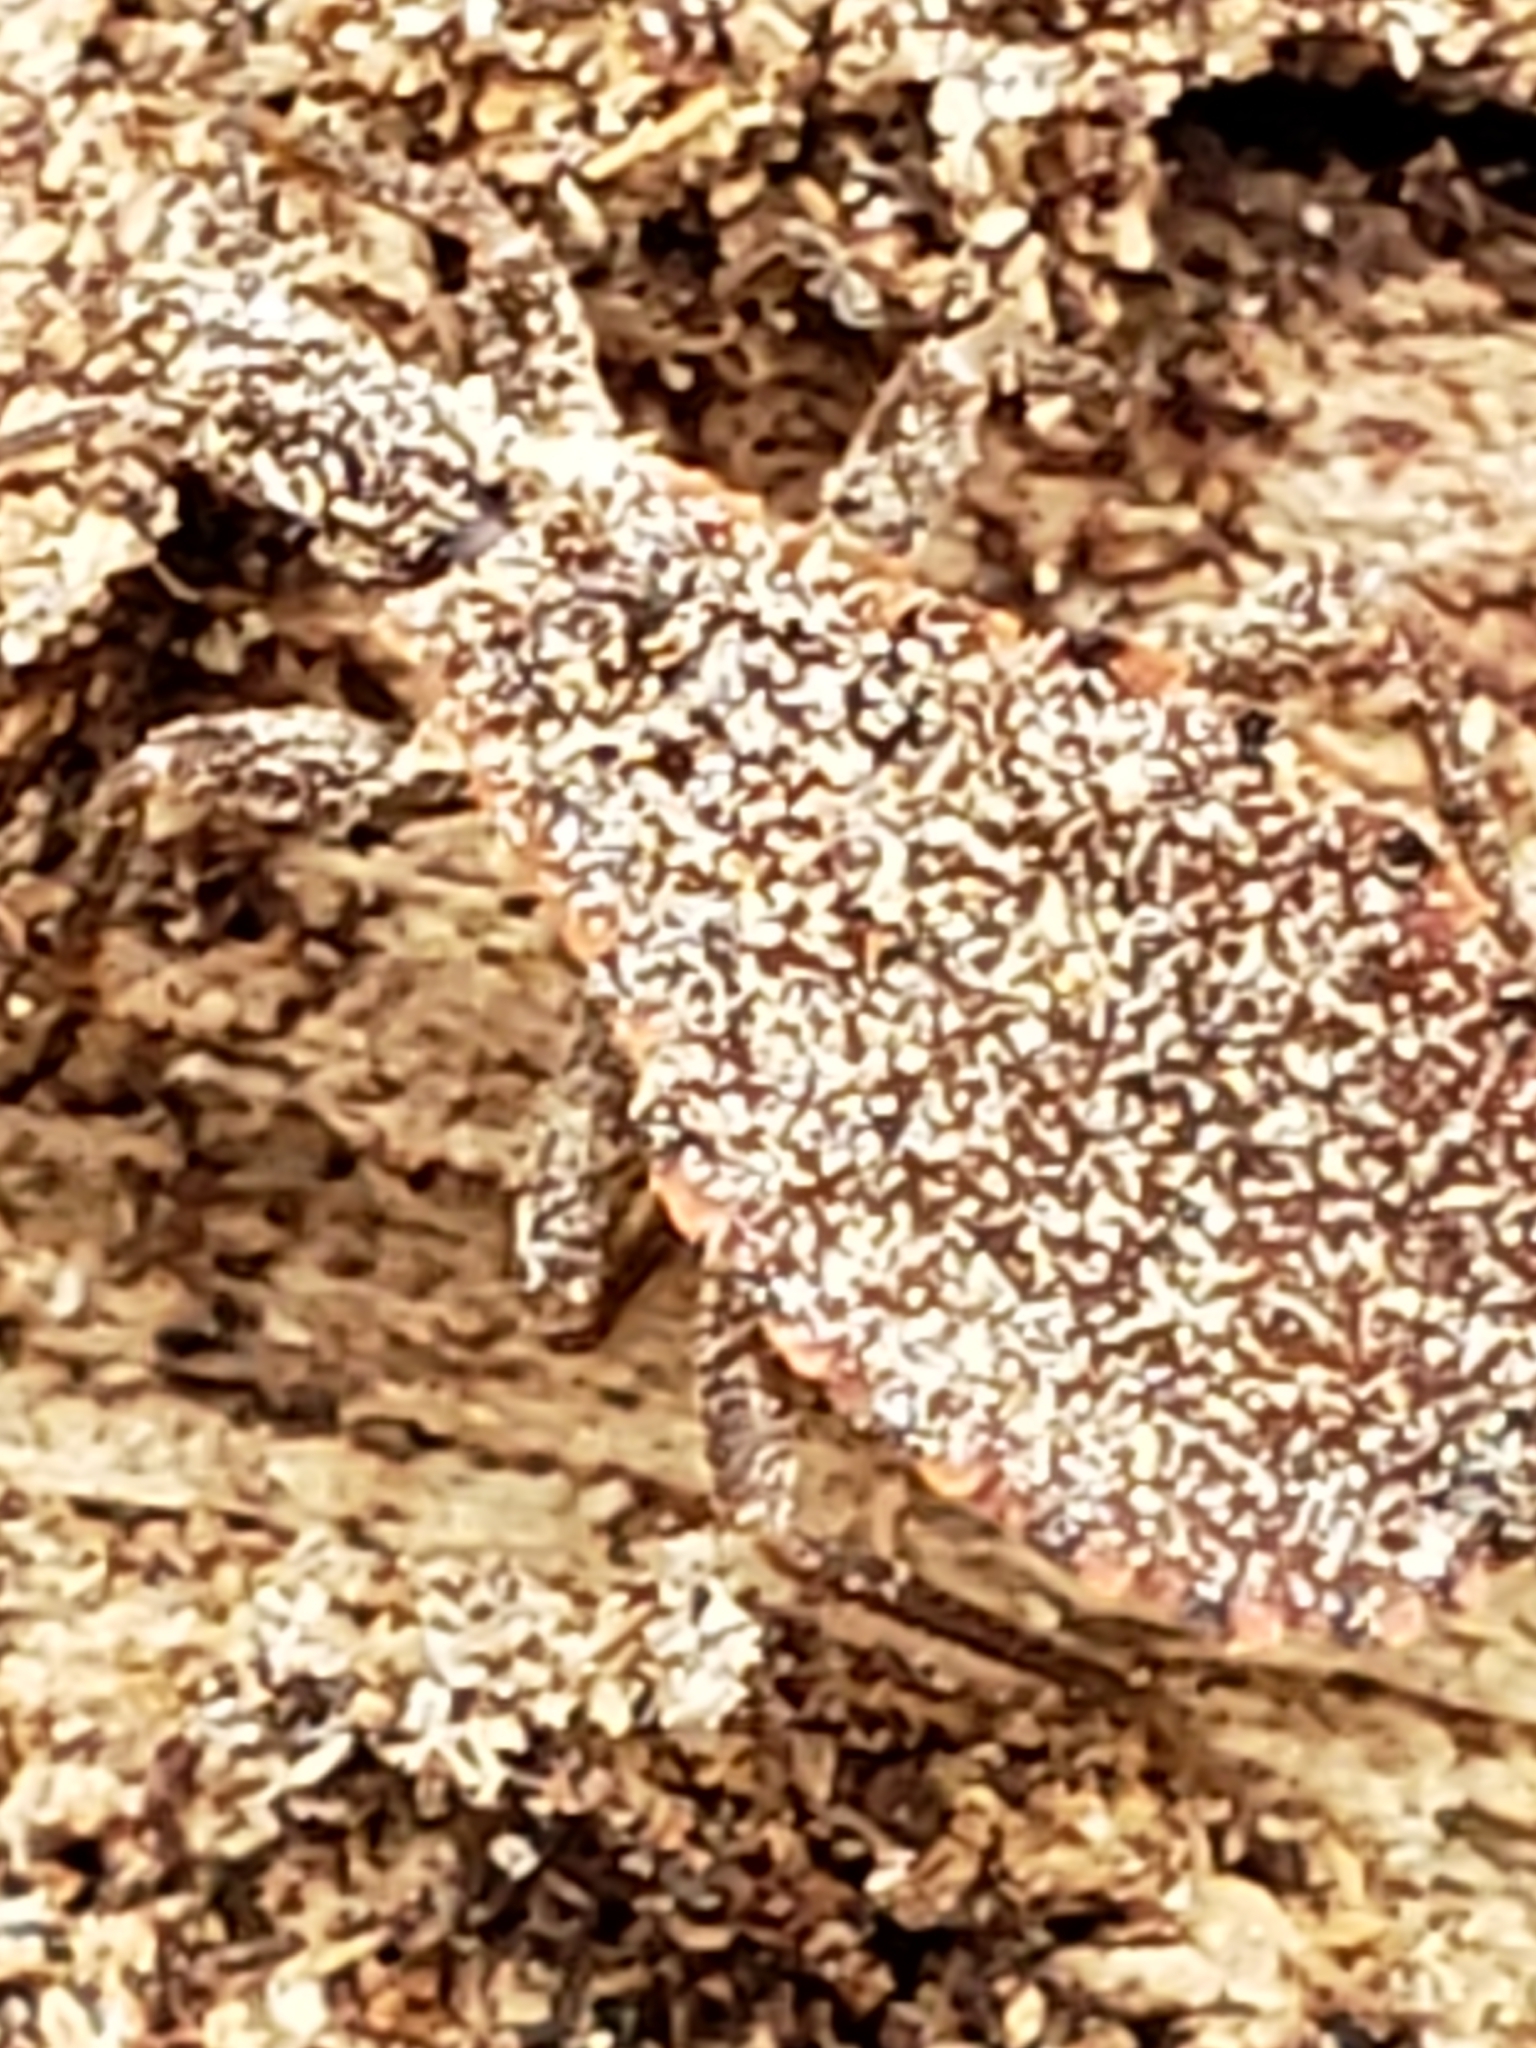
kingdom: Animalia
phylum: Arthropoda
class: Insecta
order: Hemiptera
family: Reduviidae
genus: Triatoma
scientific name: Triatoma sanguisuga
